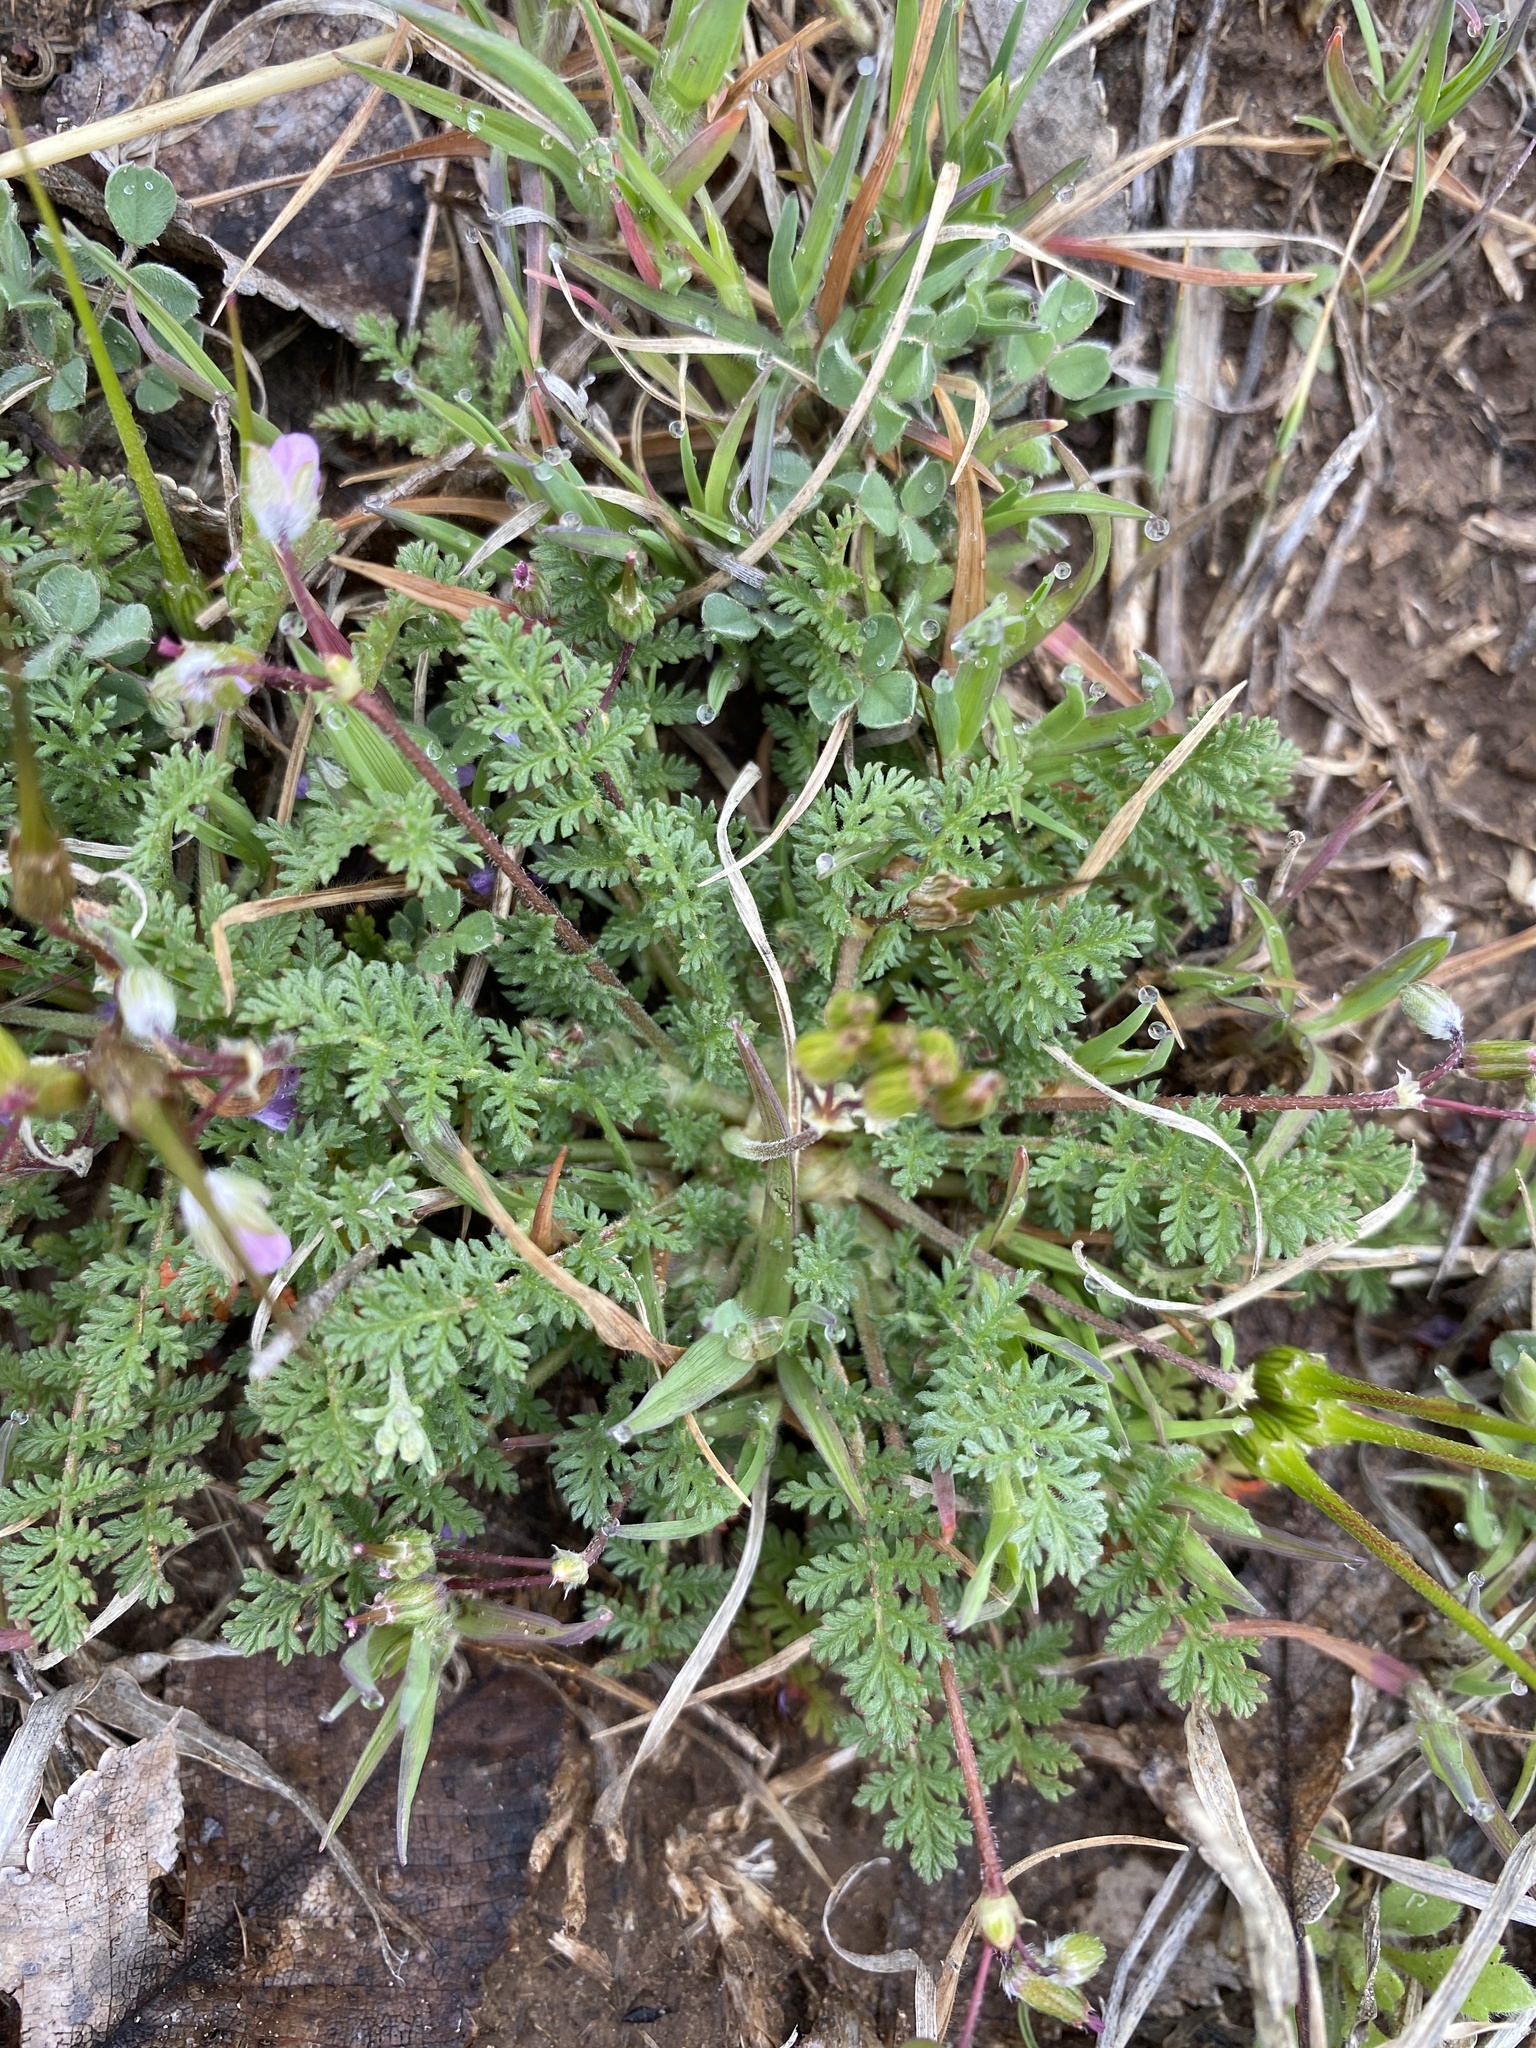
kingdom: Plantae
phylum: Tracheophyta
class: Magnoliopsida
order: Geraniales
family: Geraniaceae
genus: Erodium
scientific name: Erodium cicutarium
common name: Common stork's-bill
